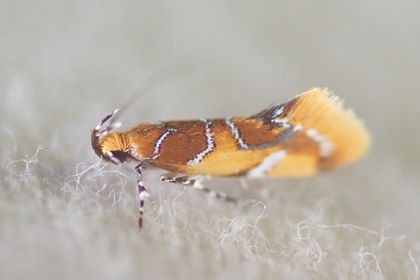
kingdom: Animalia
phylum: Arthropoda
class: Insecta
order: Lepidoptera
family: Oecophoridae
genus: Callima
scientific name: Callima argenticinctella
